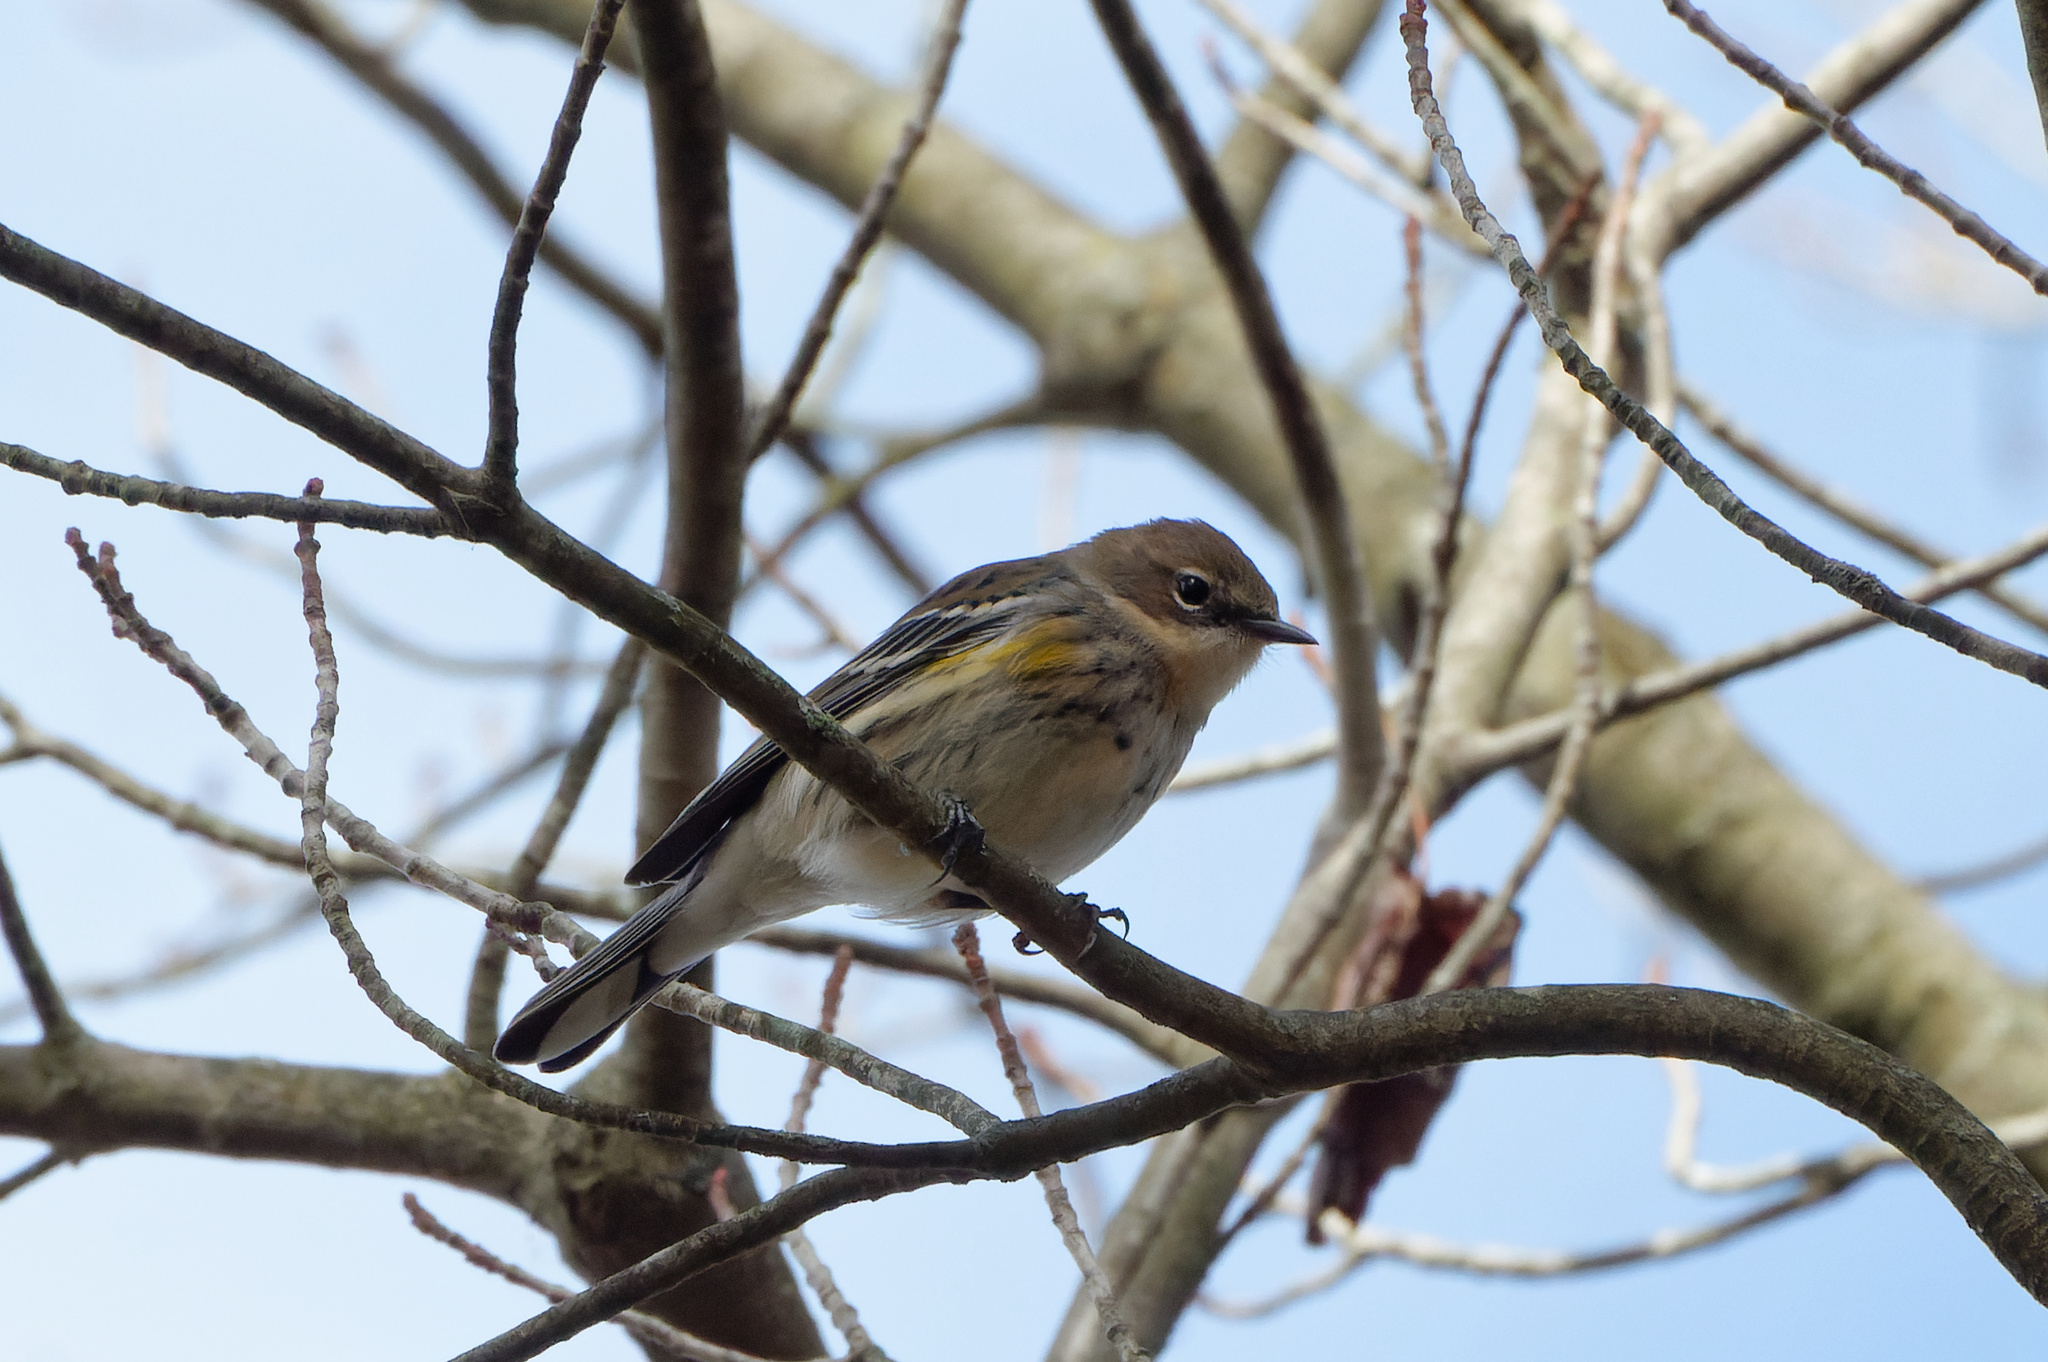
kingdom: Animalia
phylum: Chordata
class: Aves
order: Passeriformes
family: Parulidae
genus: Setophaga
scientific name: Setophaga coronata
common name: Myrtle warbler
